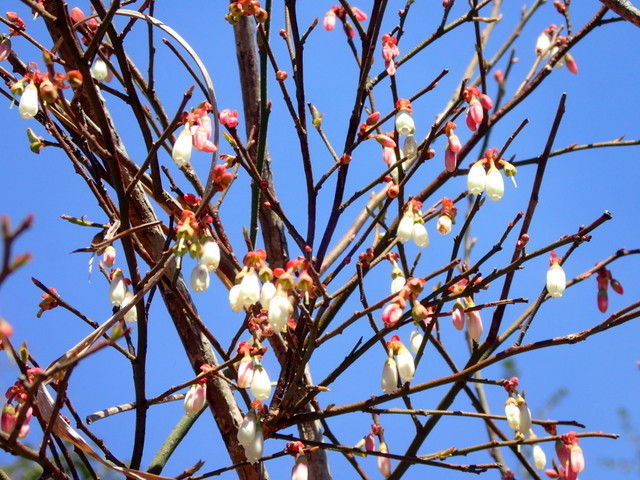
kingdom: Plantae
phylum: Tracheophyta
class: Magnoliopsida
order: Ericales
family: Ericaceae
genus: Vaccinium
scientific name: Vaccinium corymbosum
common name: Blueberry
